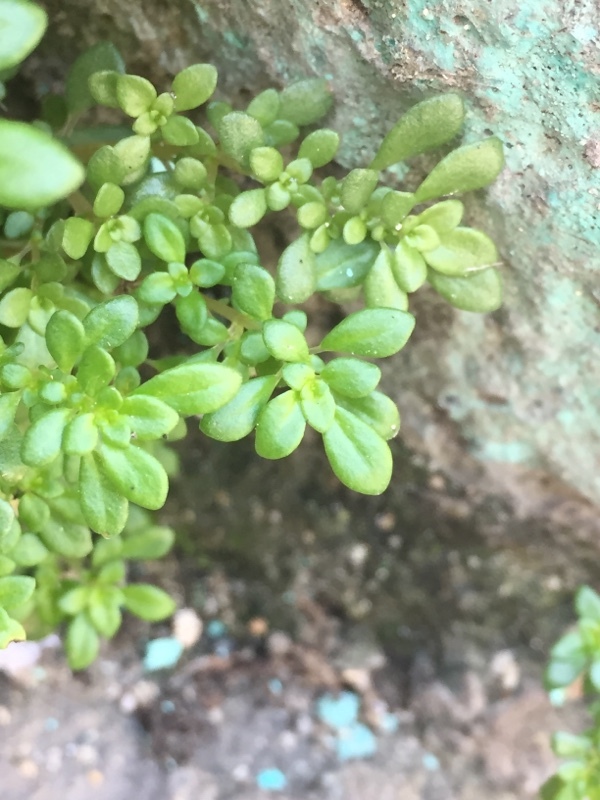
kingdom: Plantae
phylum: Tracheophyta
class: Magnoliopsida
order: Rosales
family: Urticaceae
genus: Pilea
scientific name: Pilea microphylla
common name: Artillery-plant
